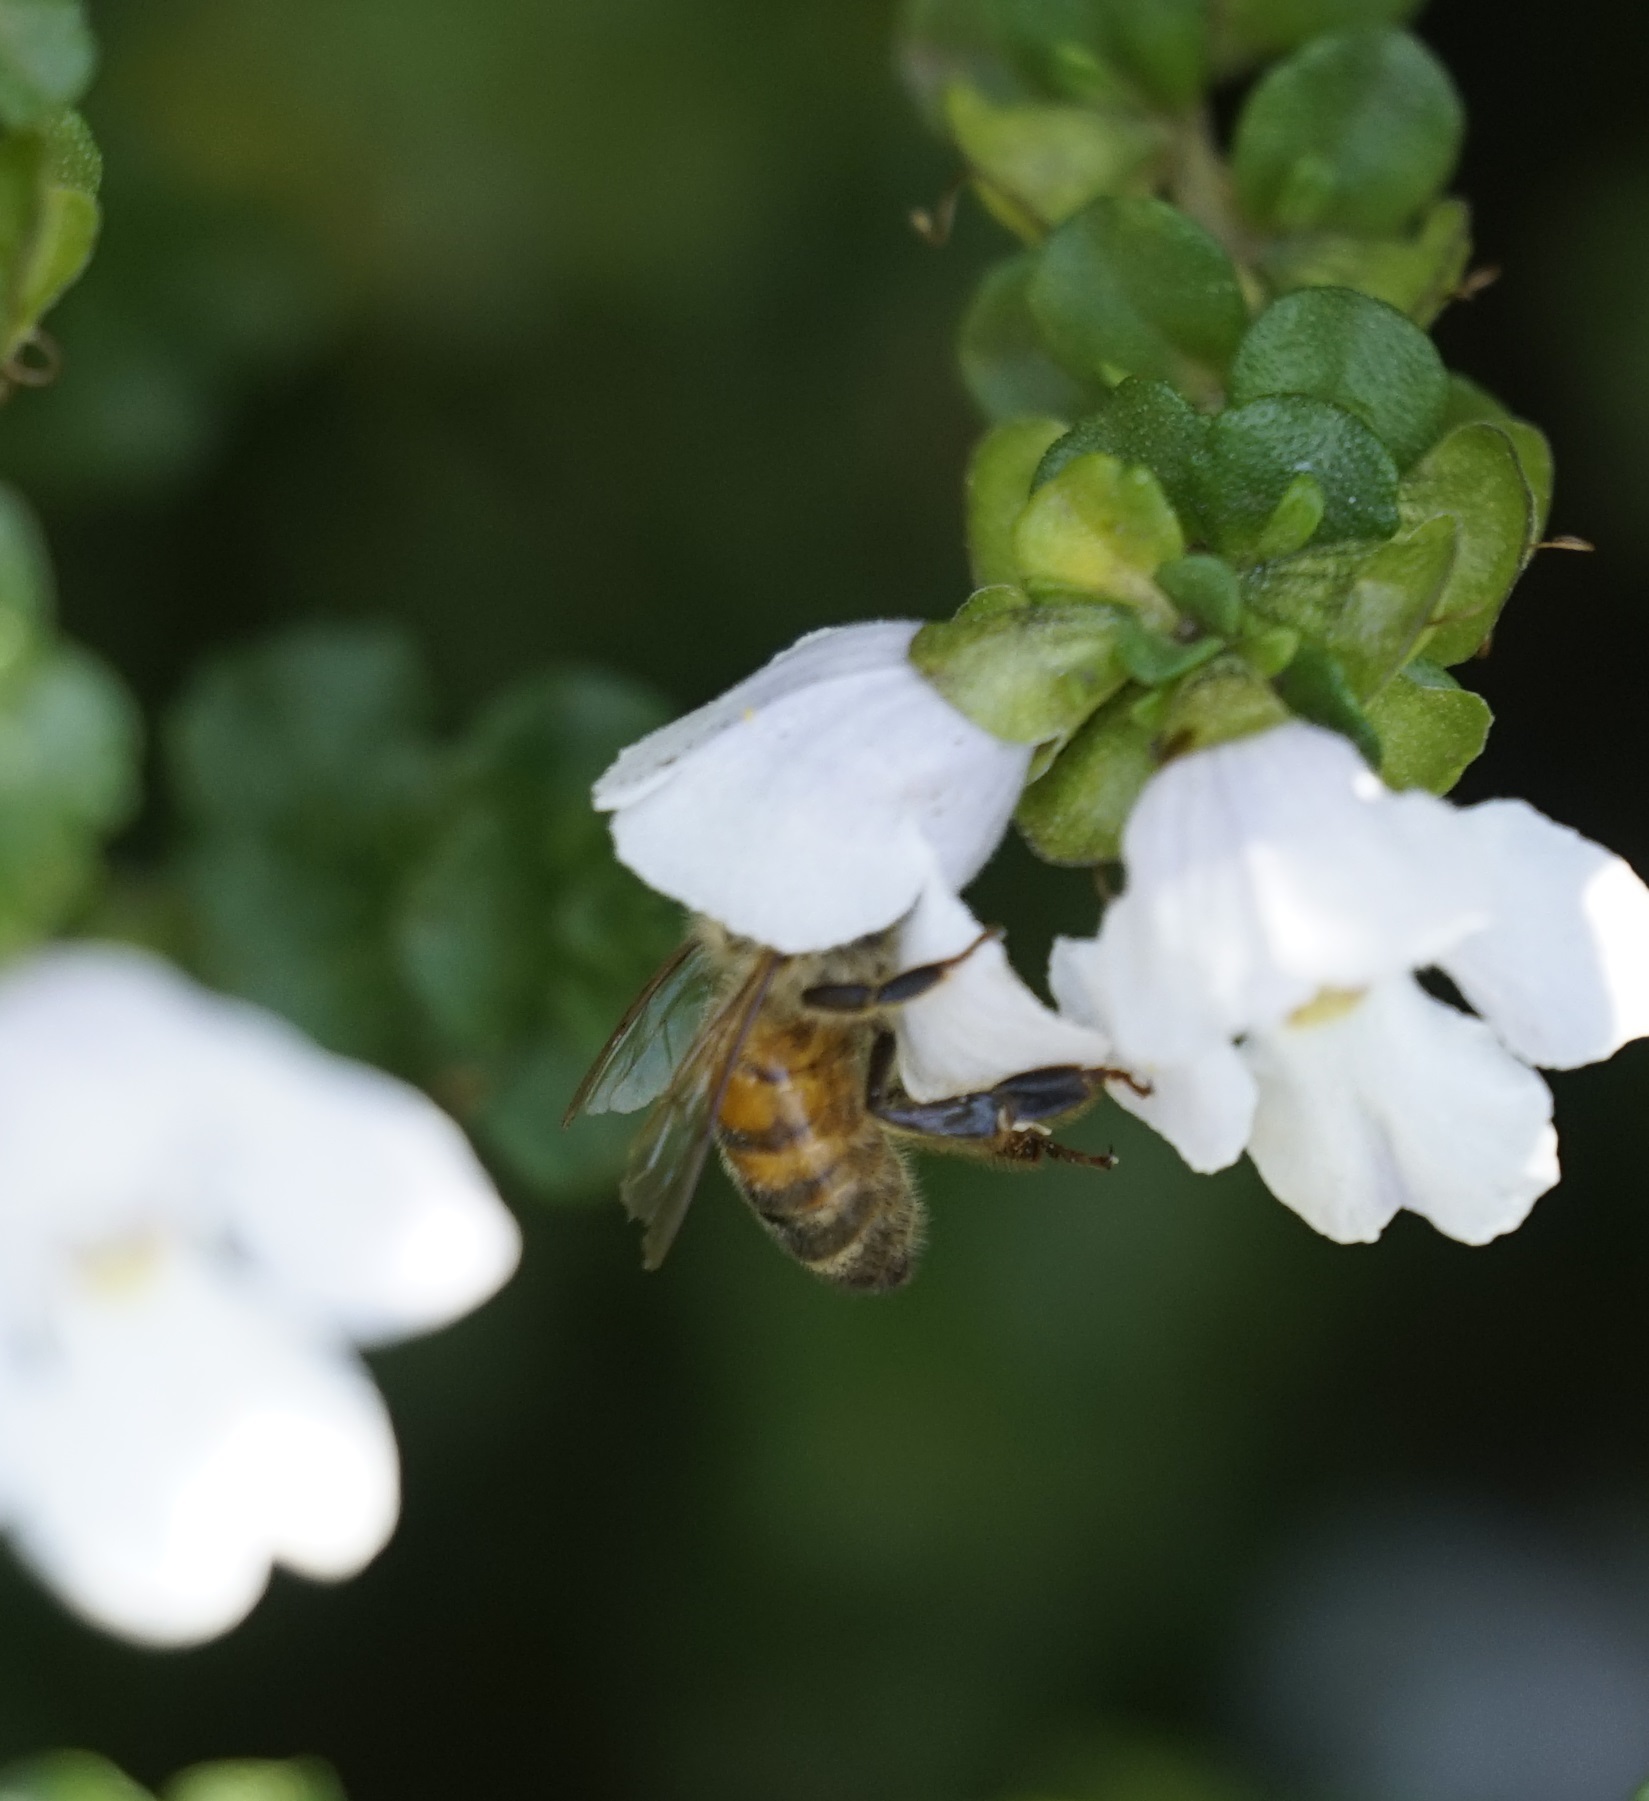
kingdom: Animalia
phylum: Arthropoda
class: Insecta
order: Hymenoptera
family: Apidae
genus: Apis
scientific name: Apis mellifera
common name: Honey bee
